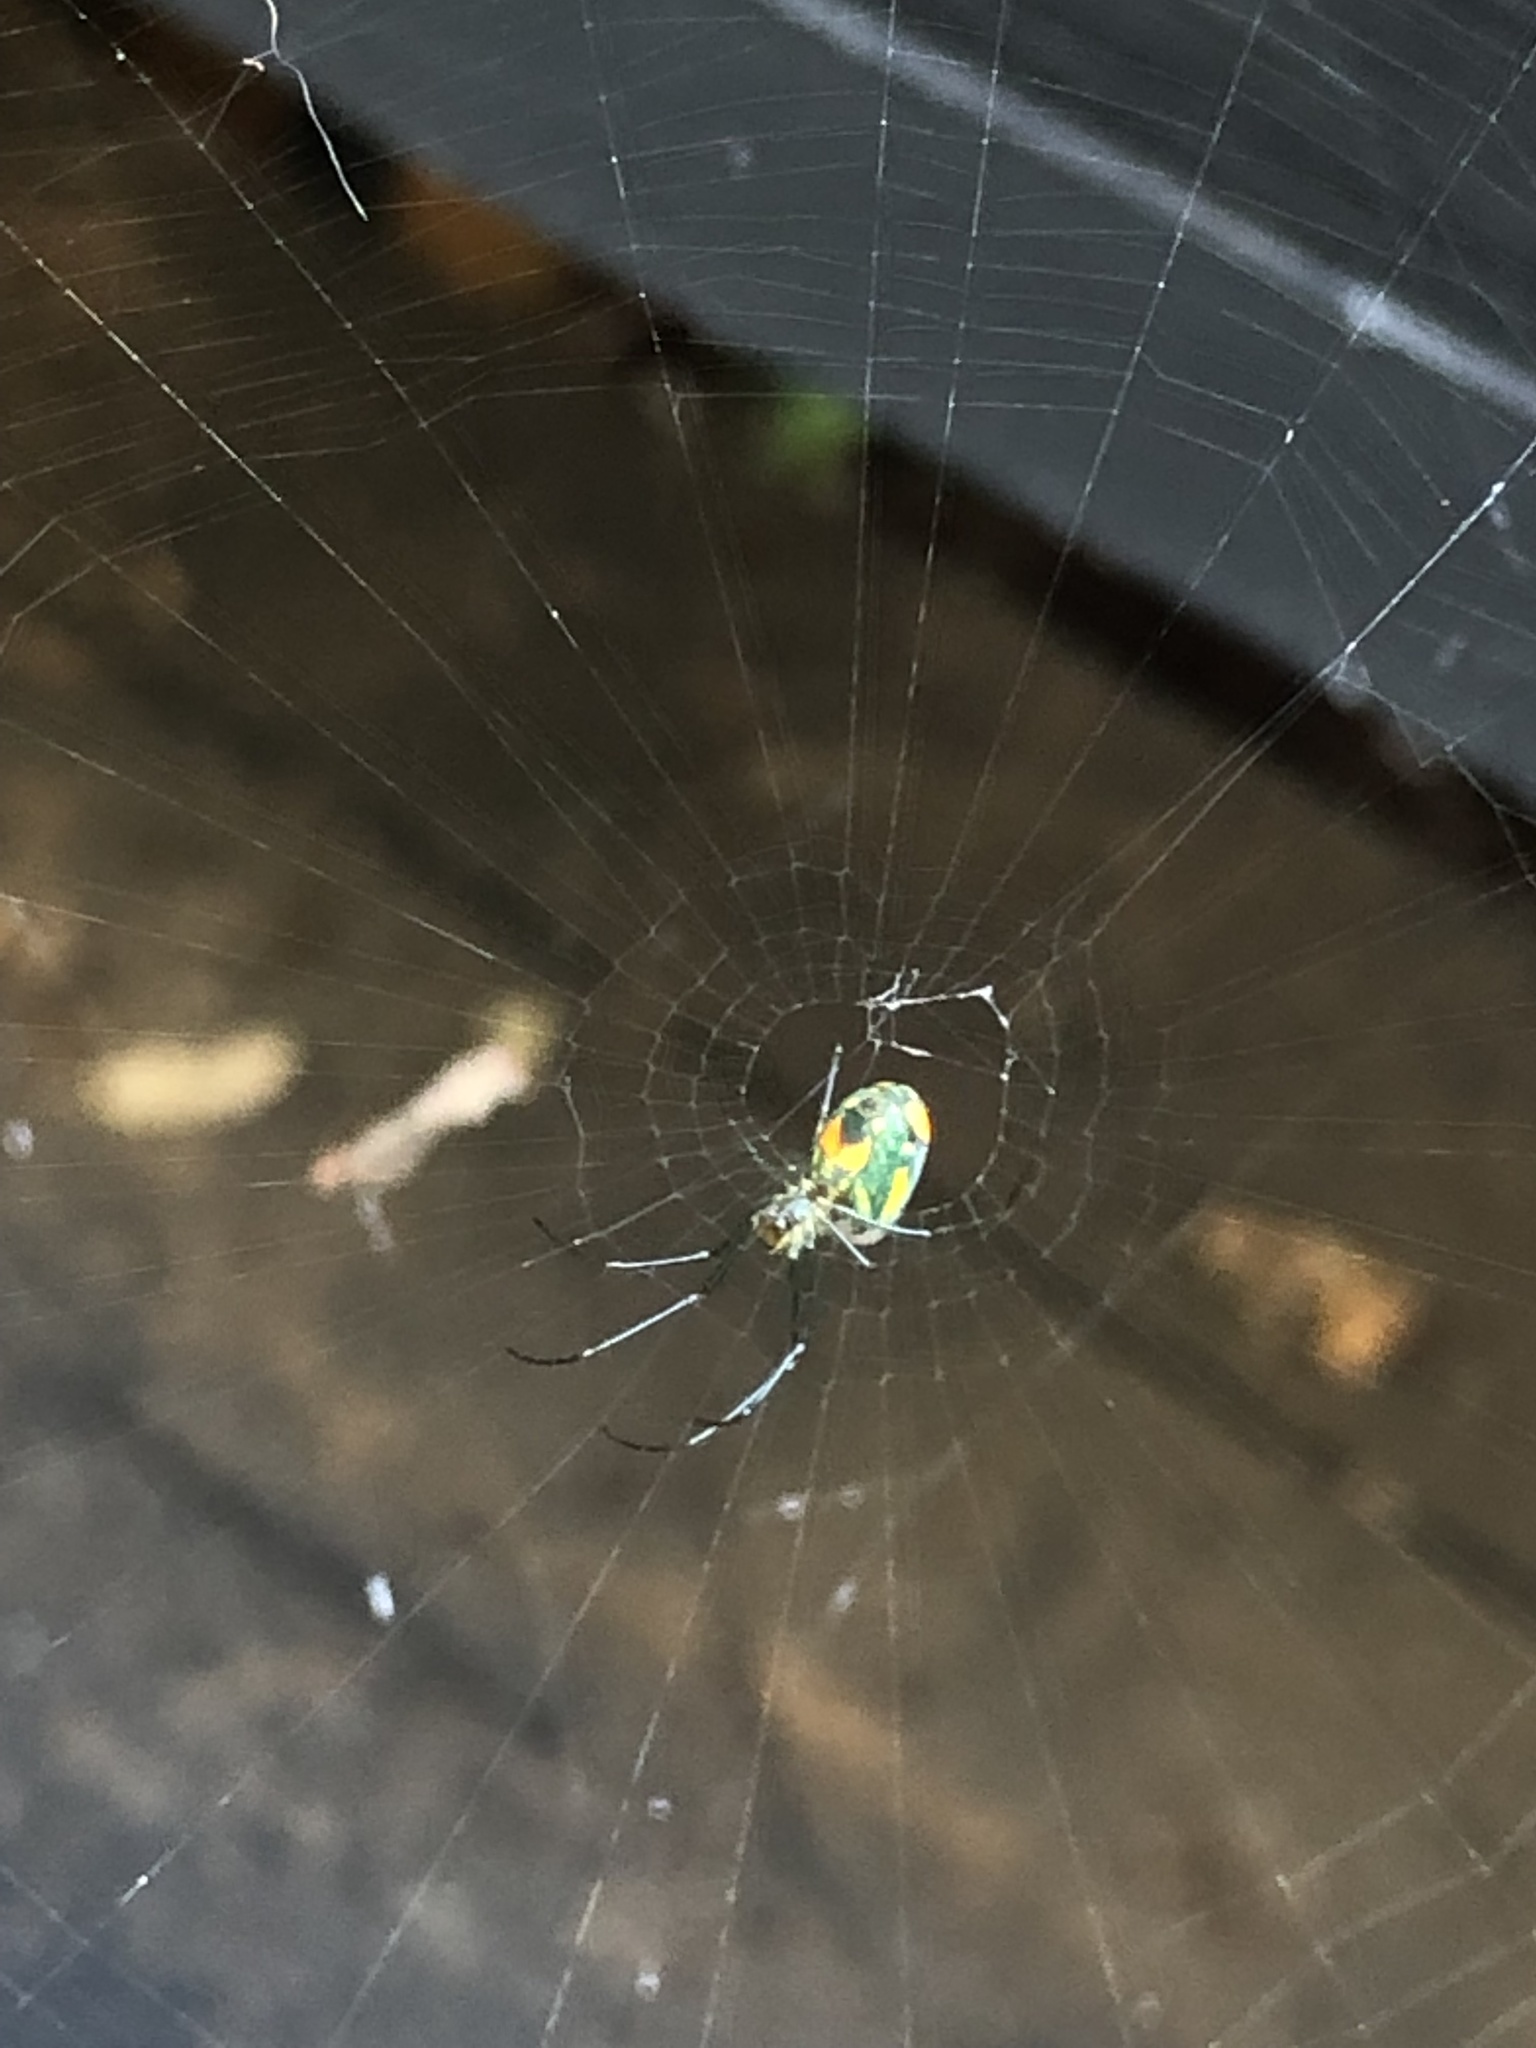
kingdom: Animalia
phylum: Arthropoda
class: Arachnida
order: Araneae
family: Tetragnathidae
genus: Leucauge
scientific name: Leucauge argyrobapta
